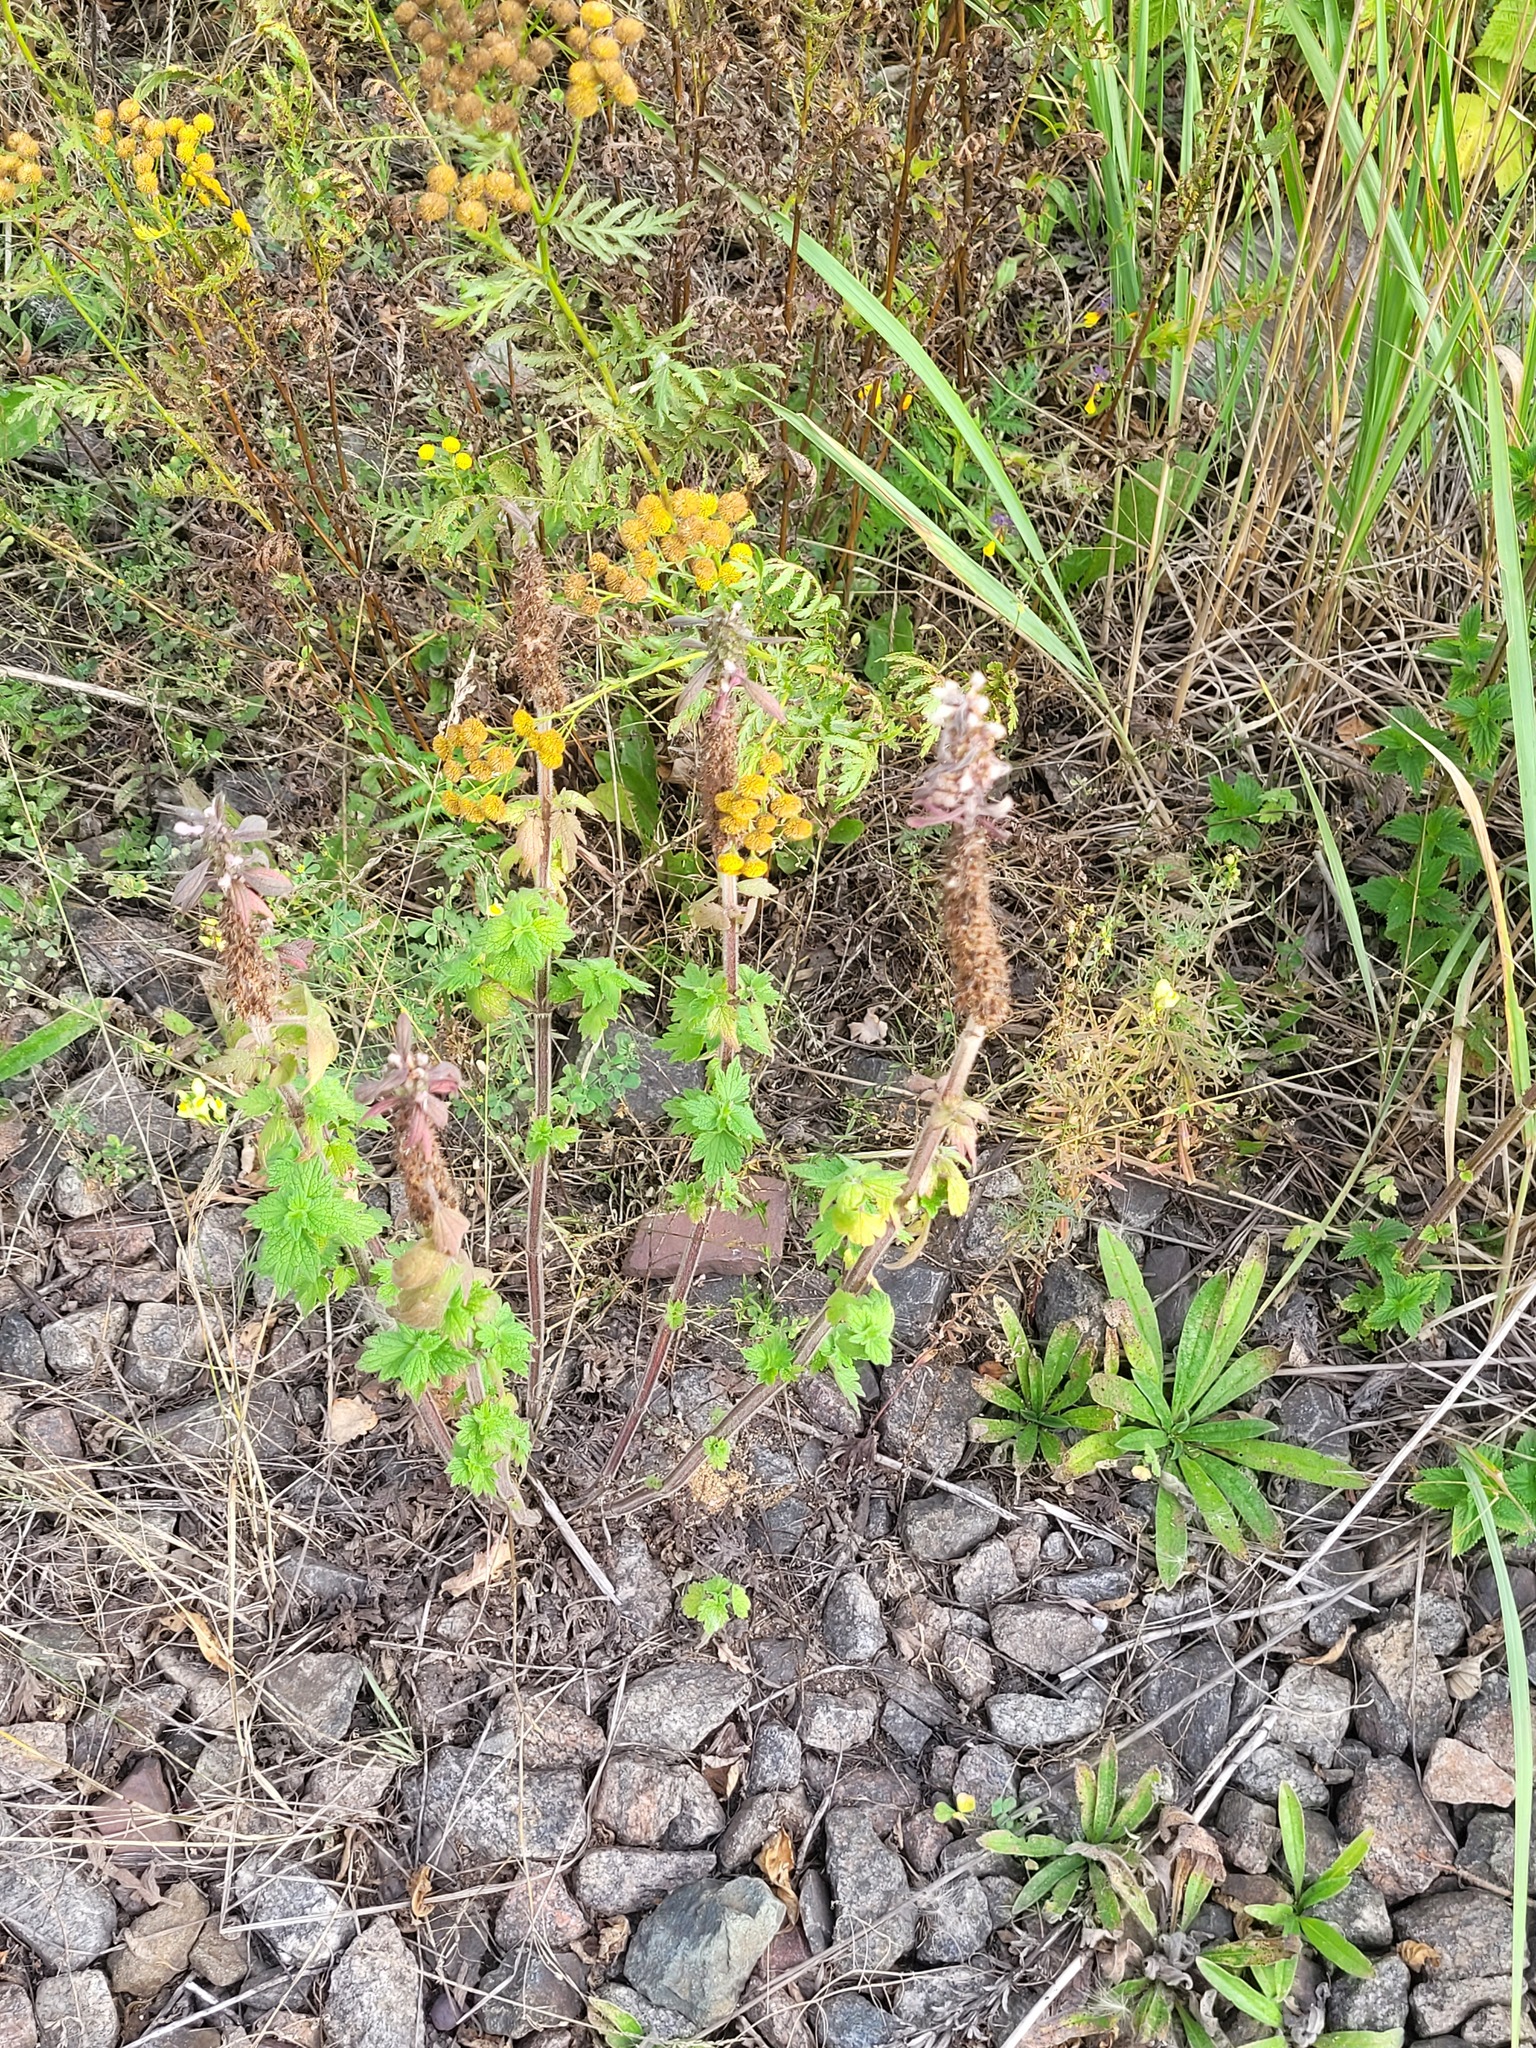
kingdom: Plantae
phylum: Tracheophyta
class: Magnoliopsida
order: Lamiales
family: Lamiaceae
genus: Leonurus
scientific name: Leonurus quinquelobatus
